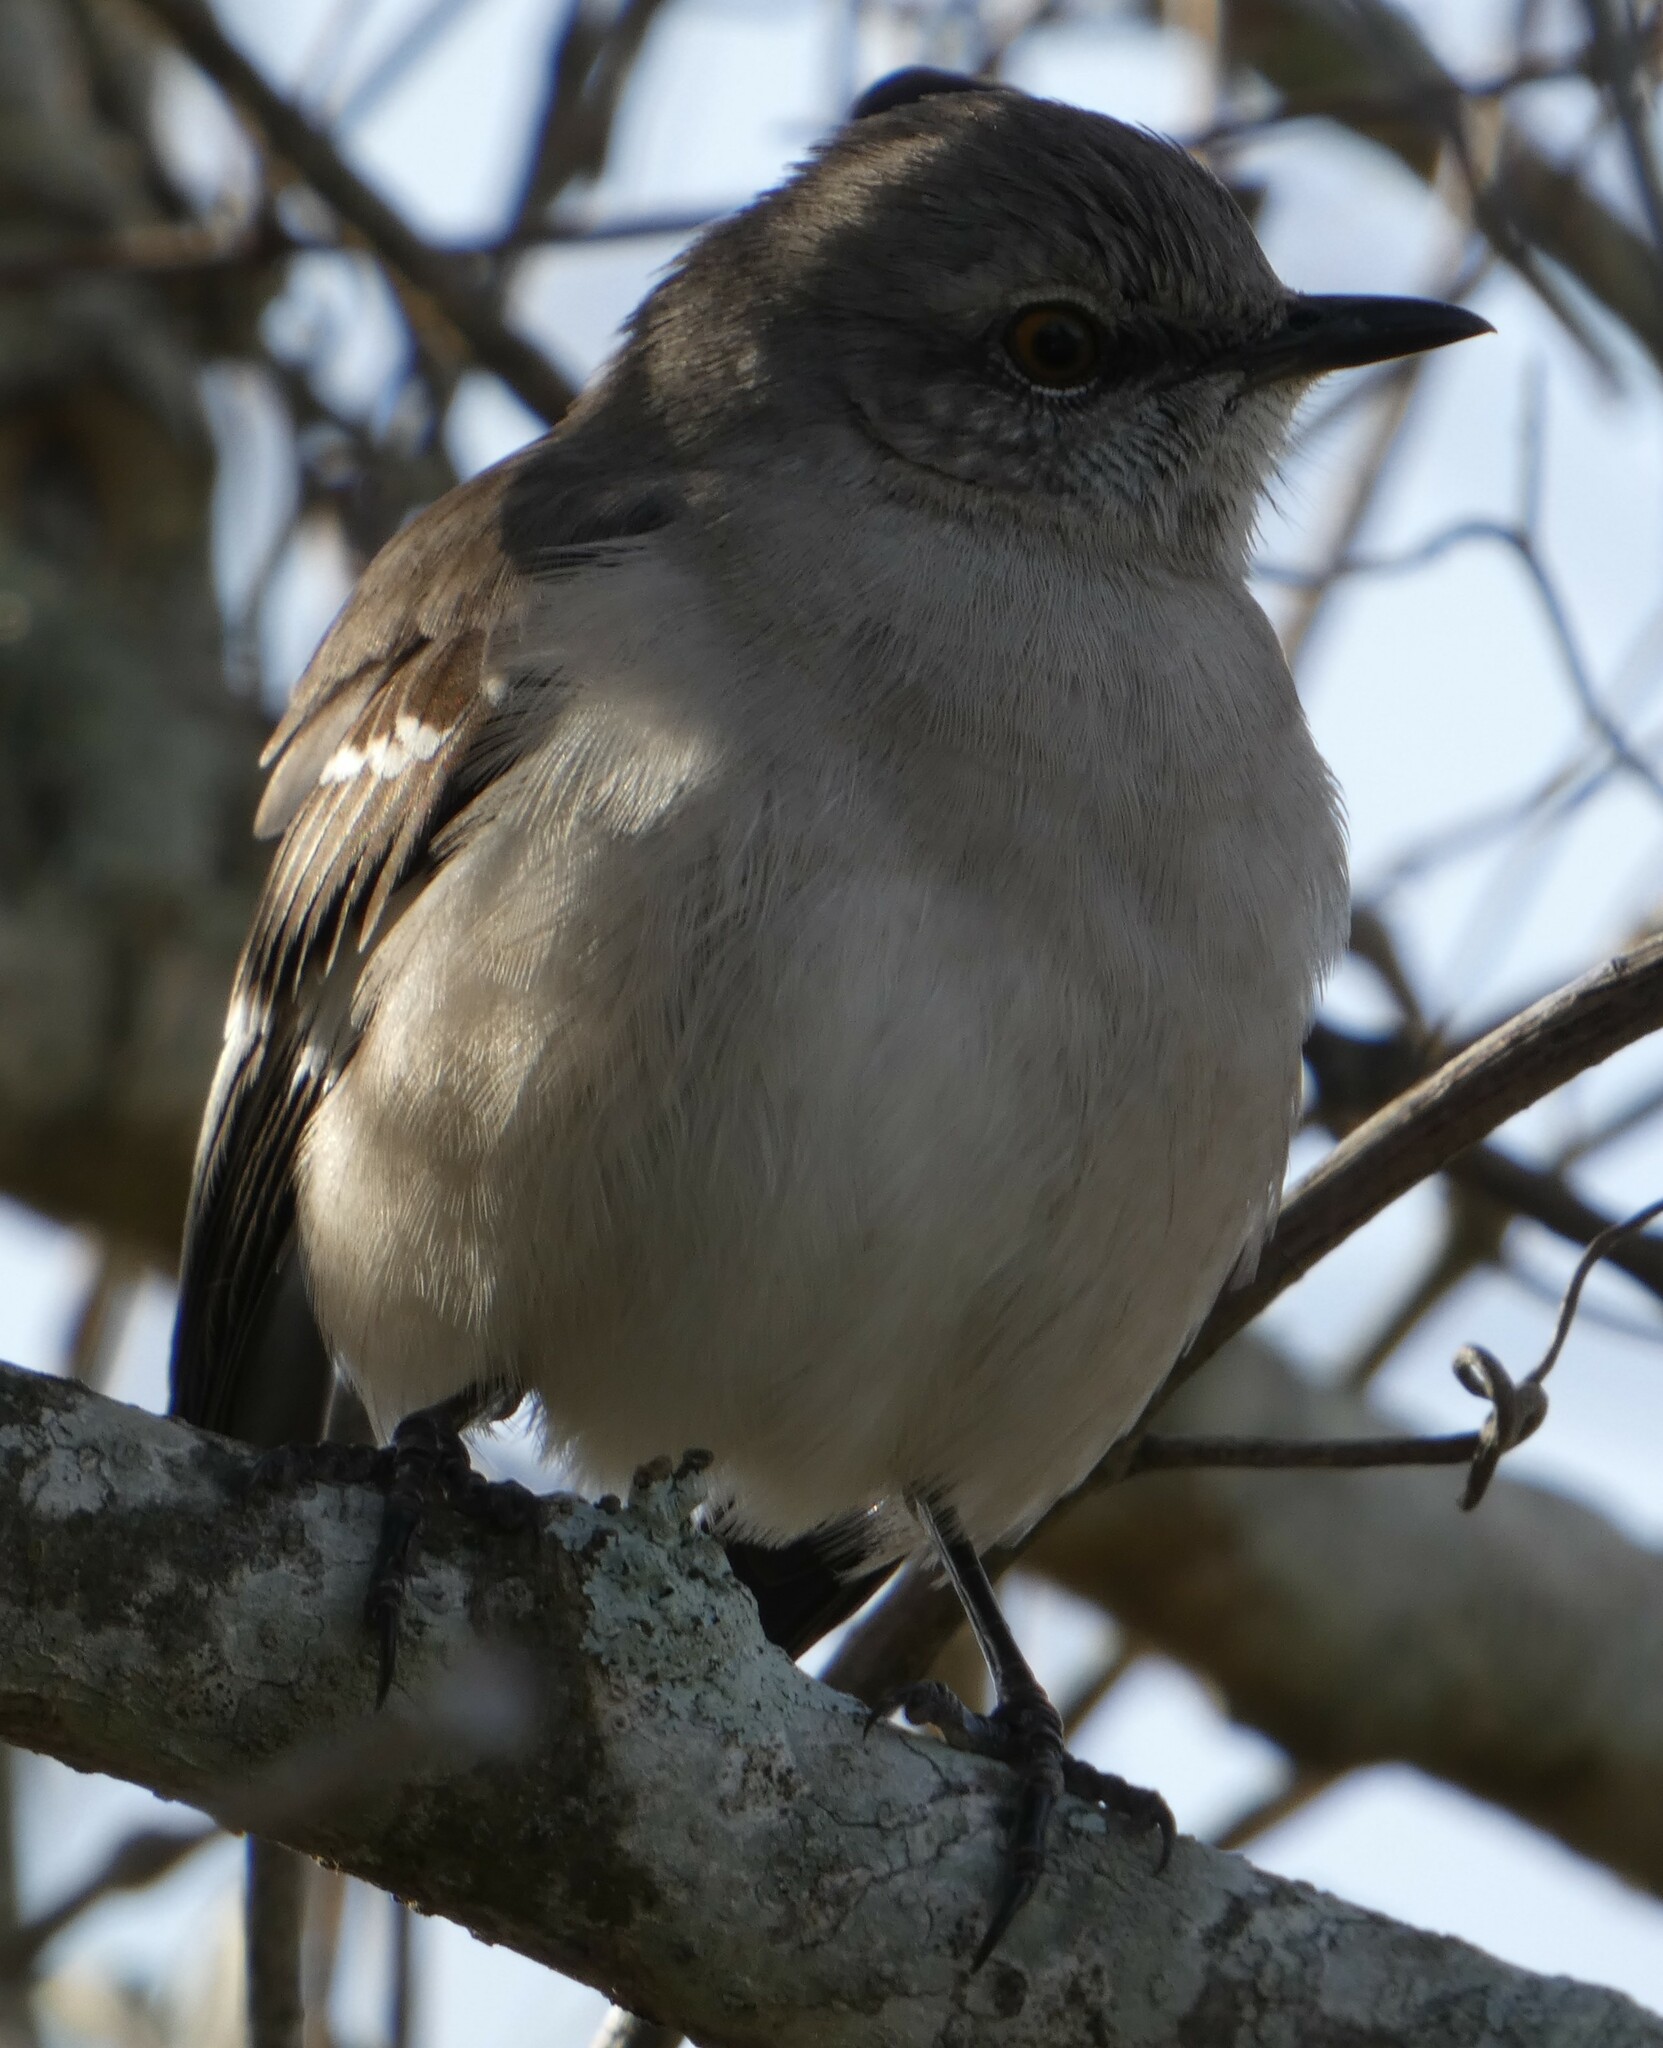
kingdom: Animalia
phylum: Chordata
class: Aves
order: Passeriformes
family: Mimidae
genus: Mimus
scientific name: Mimus polyglottos
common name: Northern mockingbird
